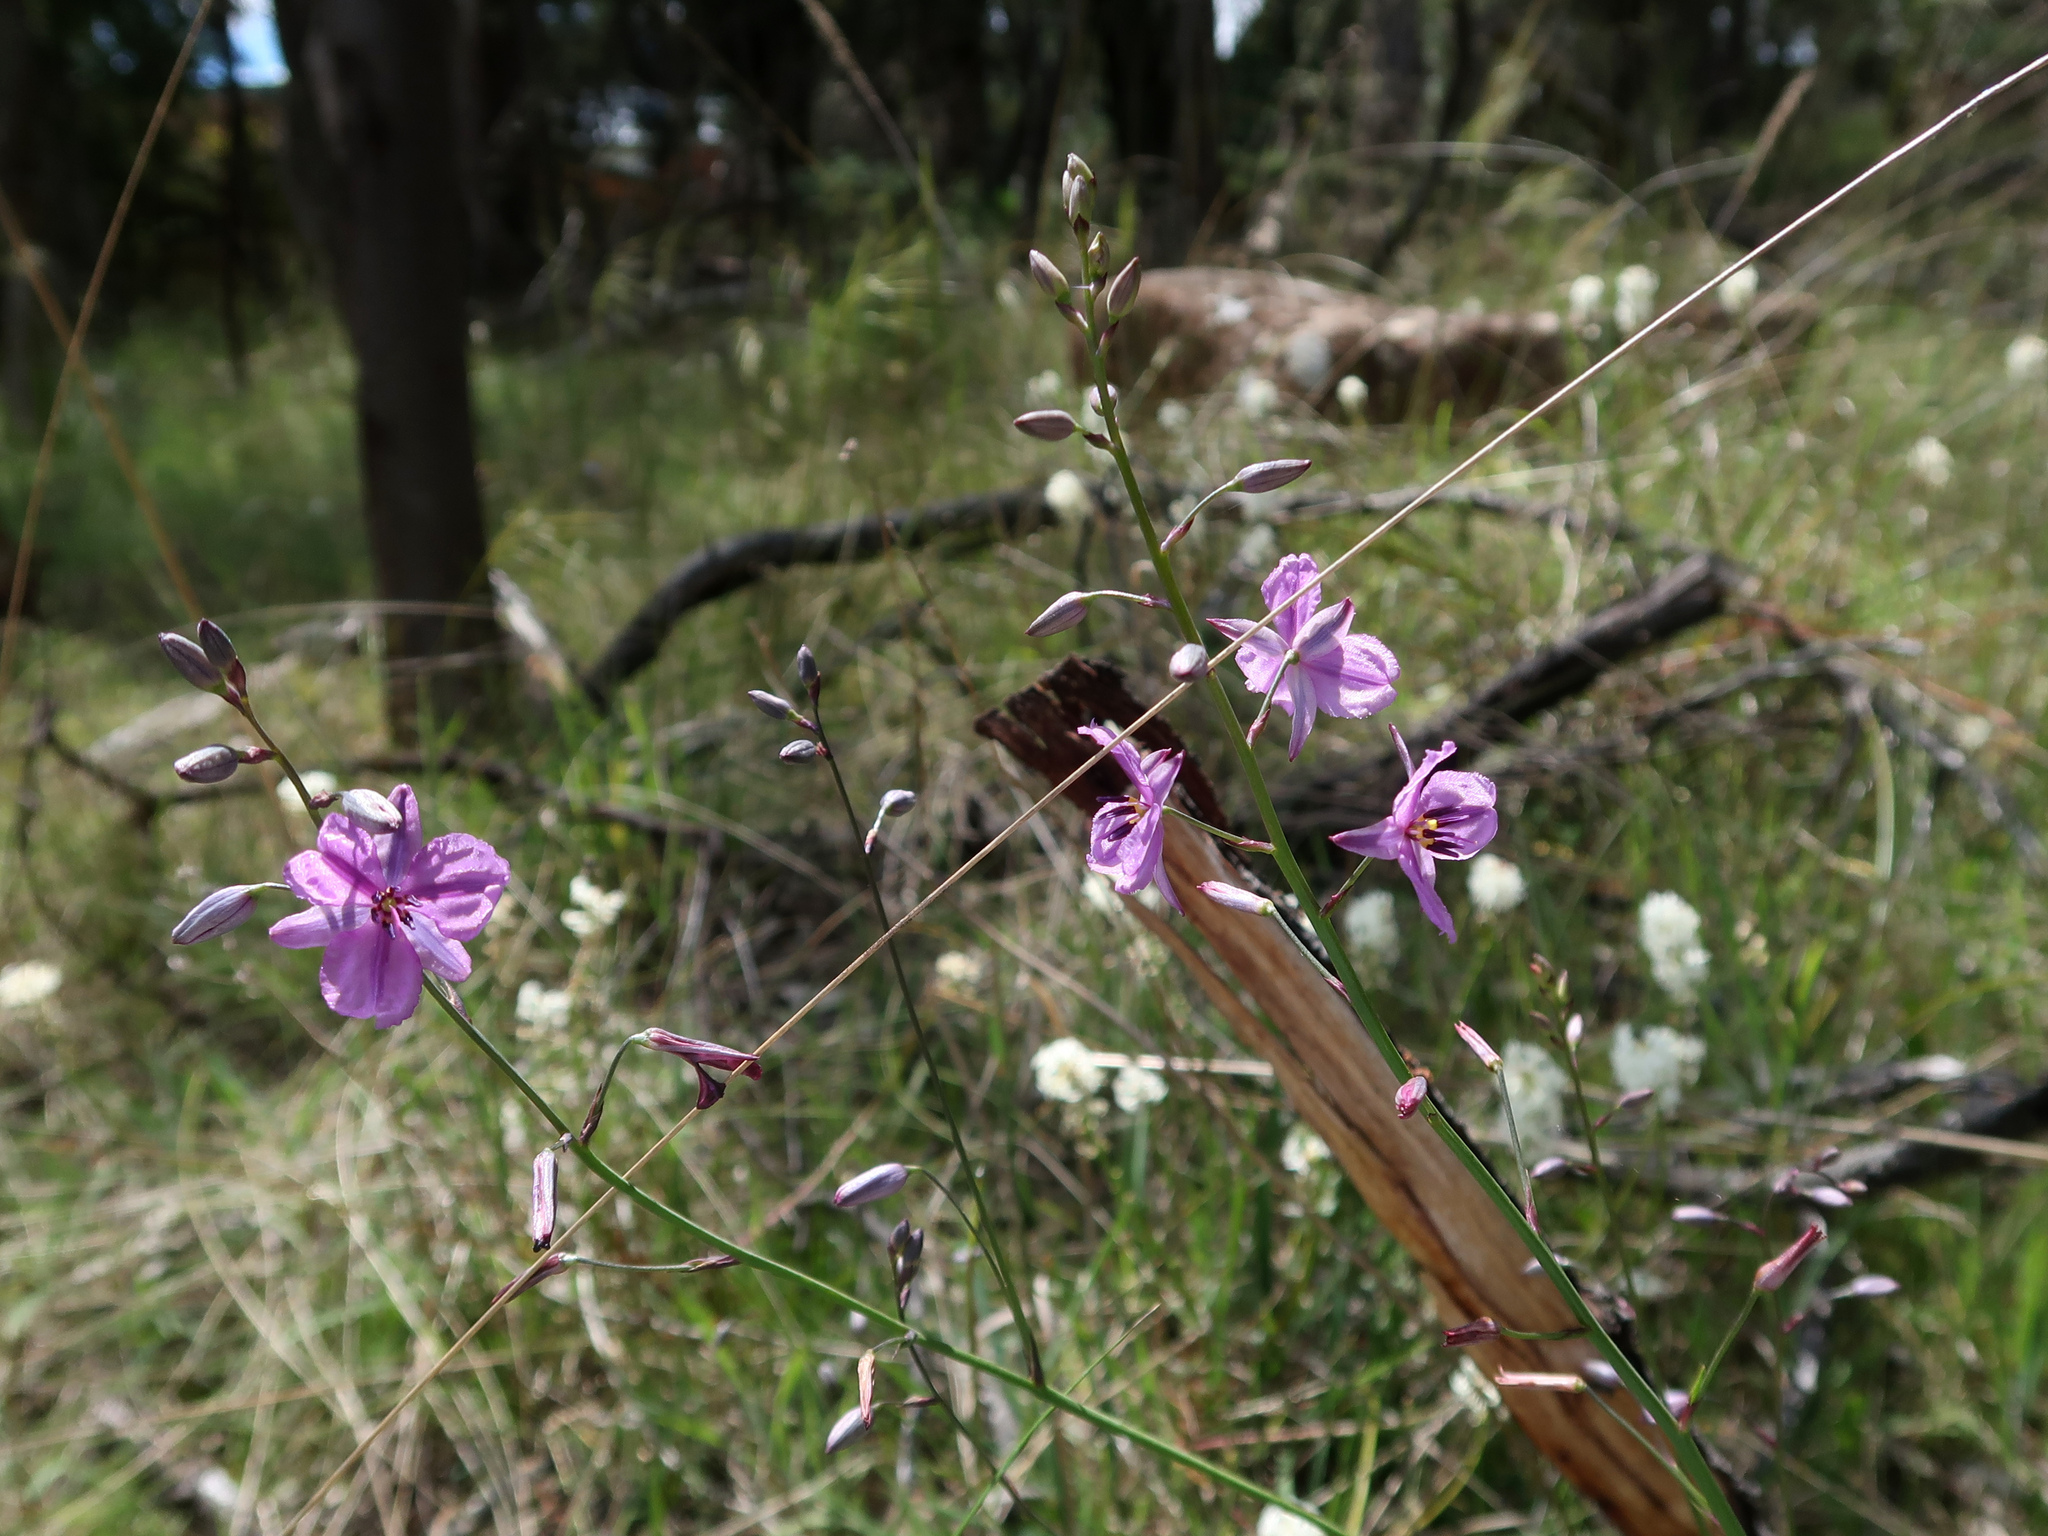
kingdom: Plantae
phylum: Tracheophyta
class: Liliopsida
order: Asparagales
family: Asparagaceae
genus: Arthropodium
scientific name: Arthropodium strictum
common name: Chocolate-lily
